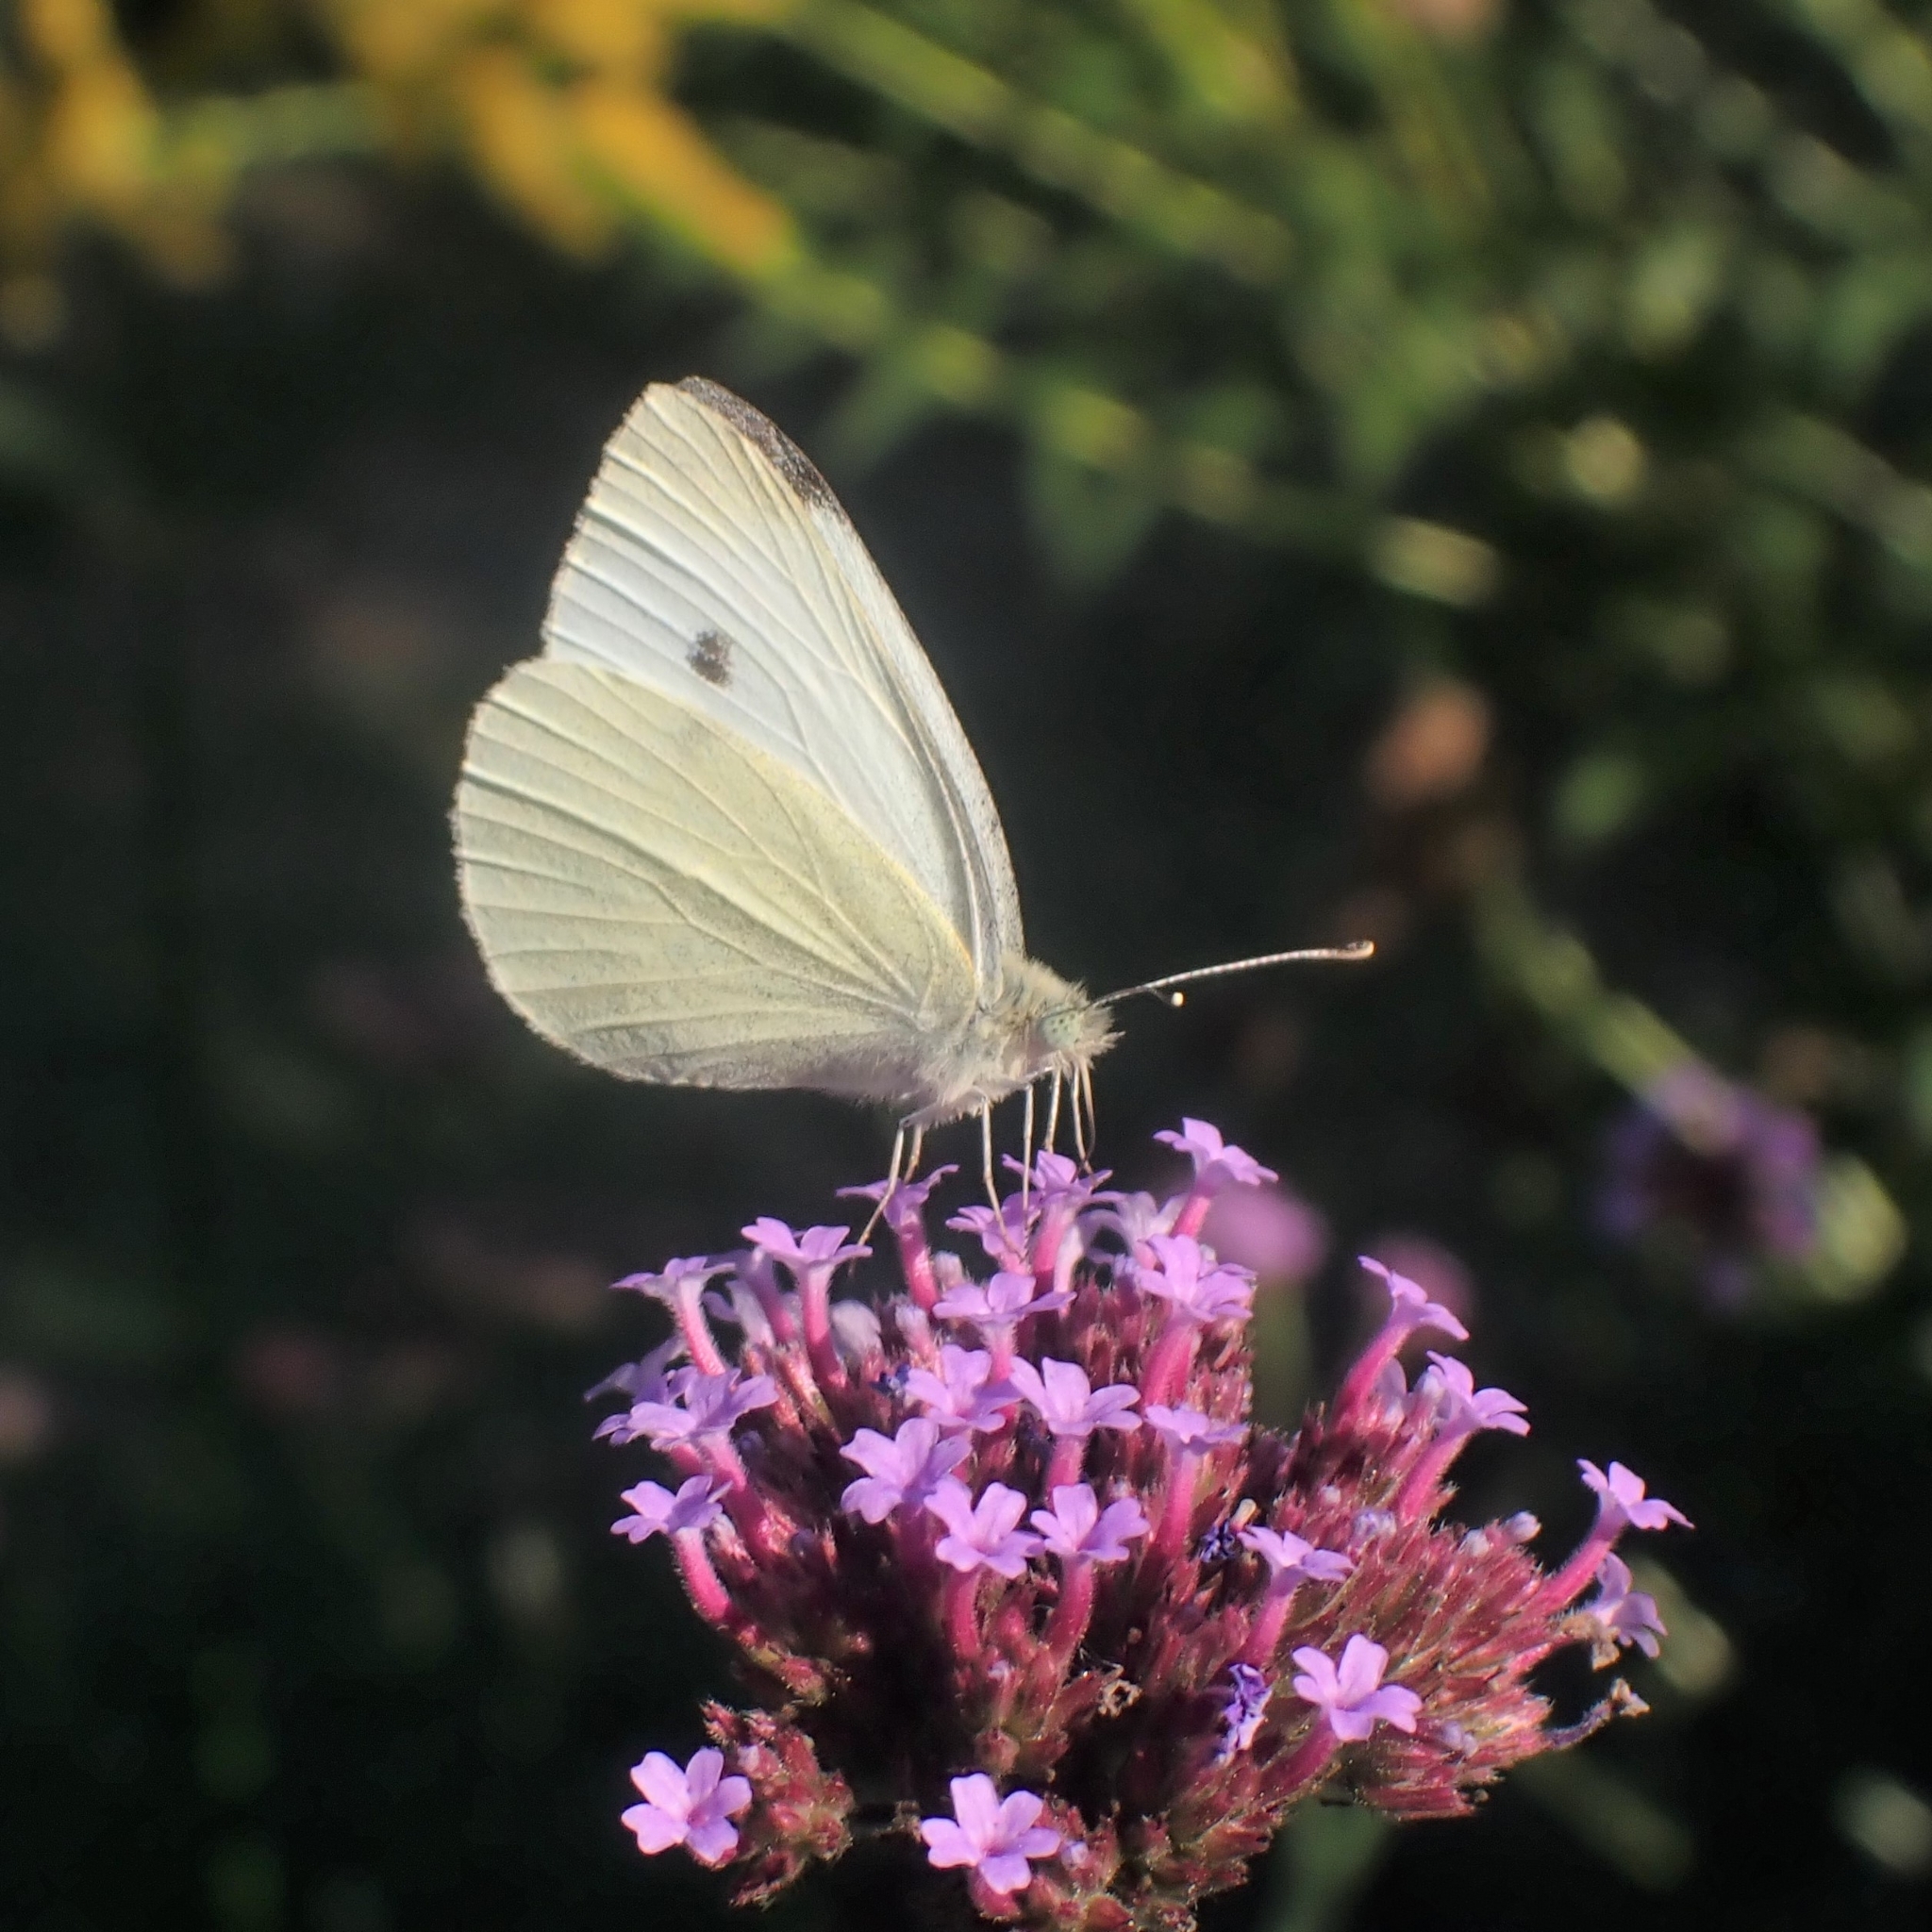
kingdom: Animalia
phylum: Arthropoda
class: Insecta
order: Lepidoptera
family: Pieridae
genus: Pieris
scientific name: Pieris rapae
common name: Small white
